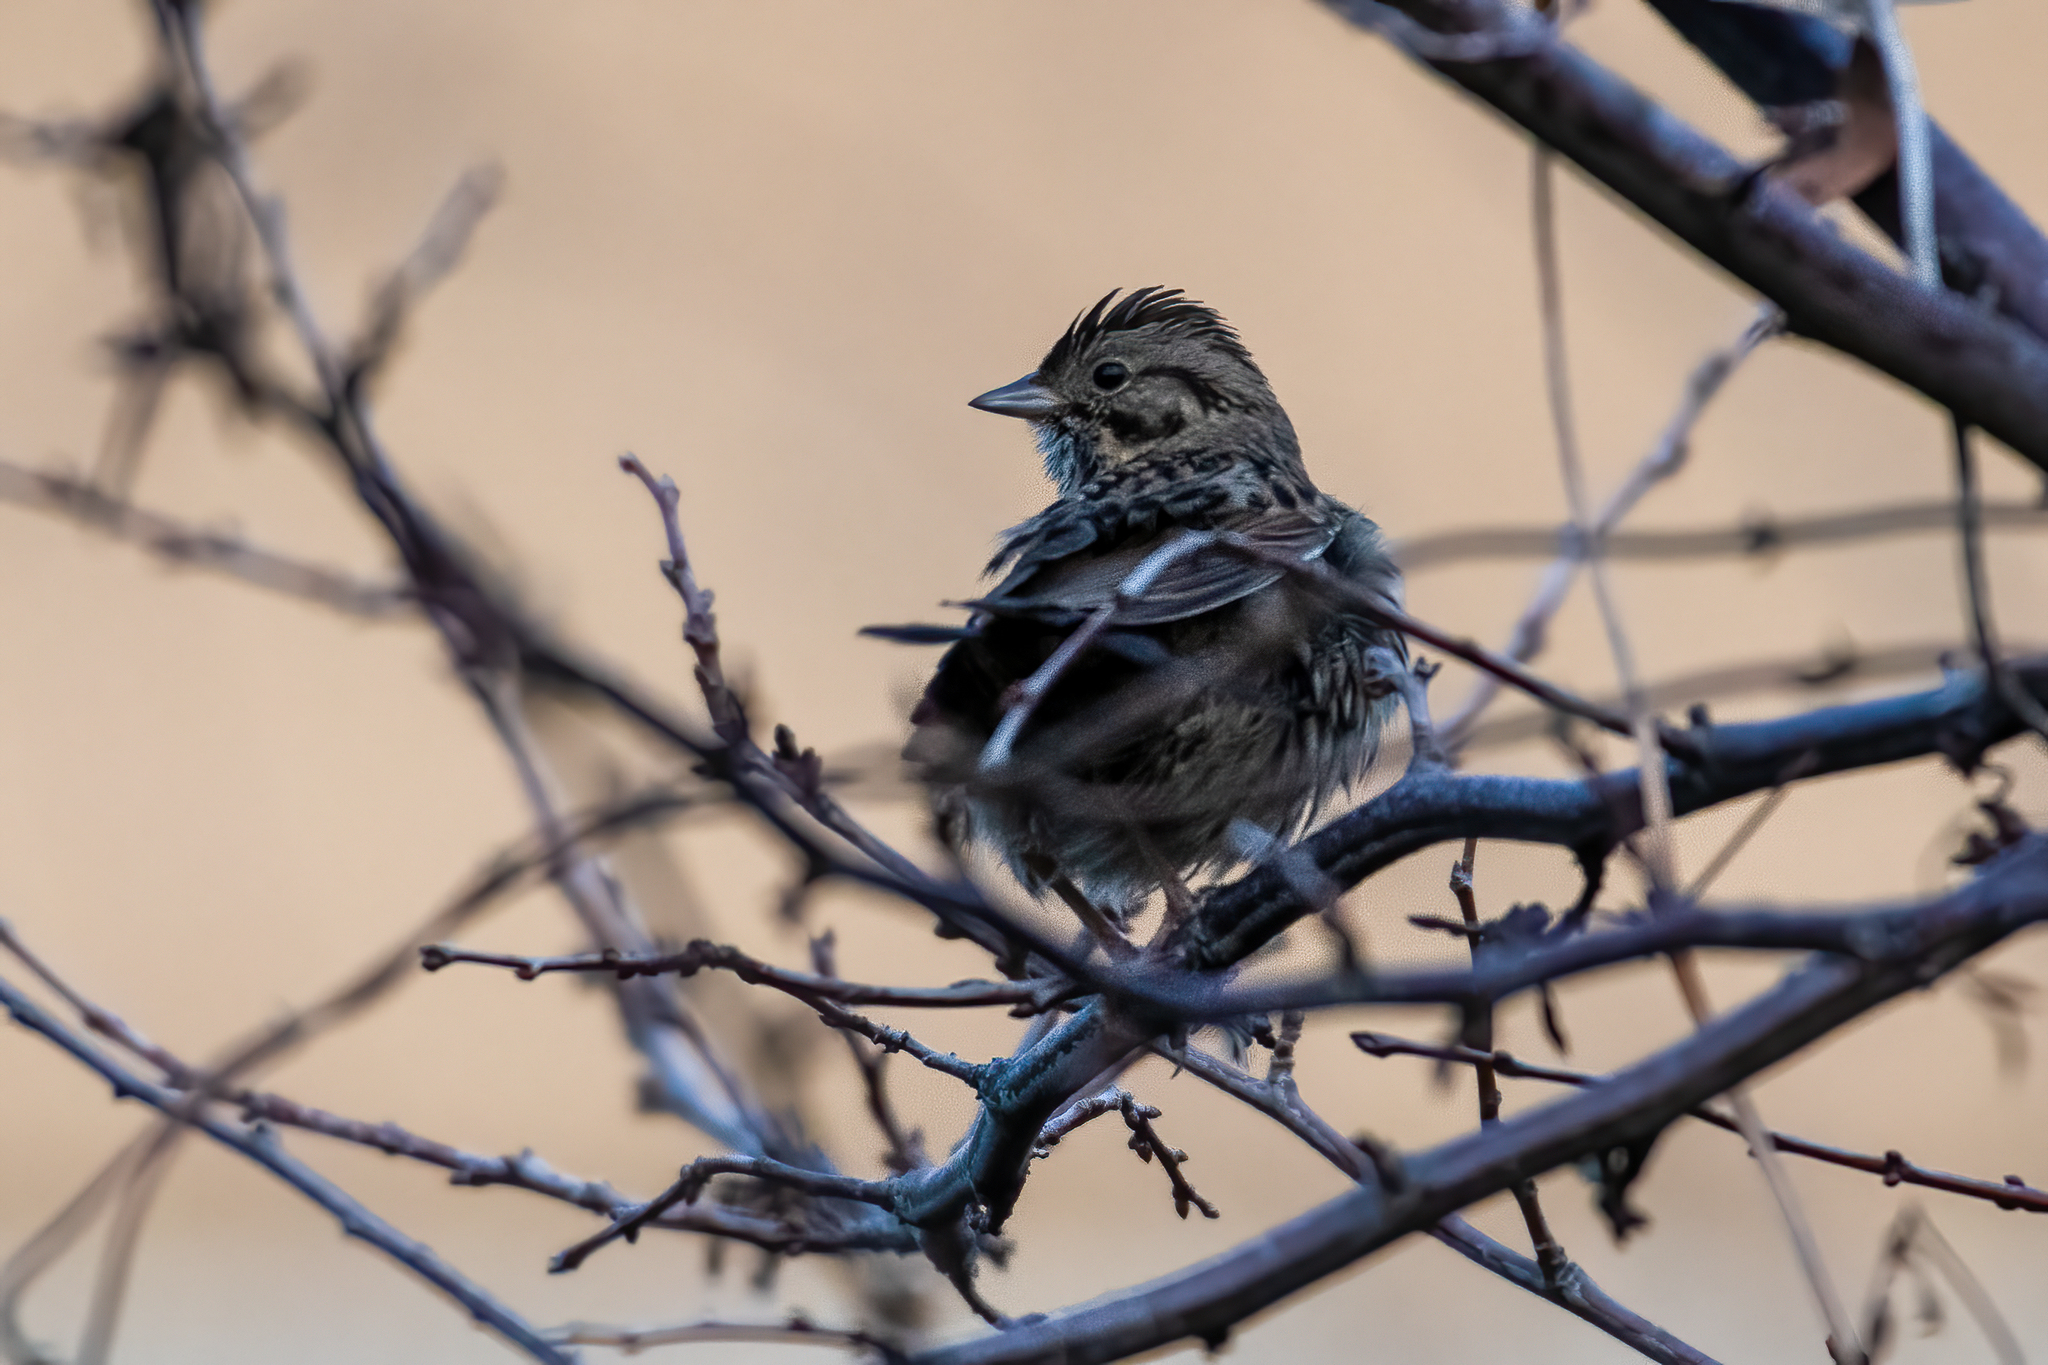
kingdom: Animalia
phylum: Chordata
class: Aves
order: Passeriformes
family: Passerellidae
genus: Melospiza
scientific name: Melospiza lincolnii
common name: Lincoln's sparrow
